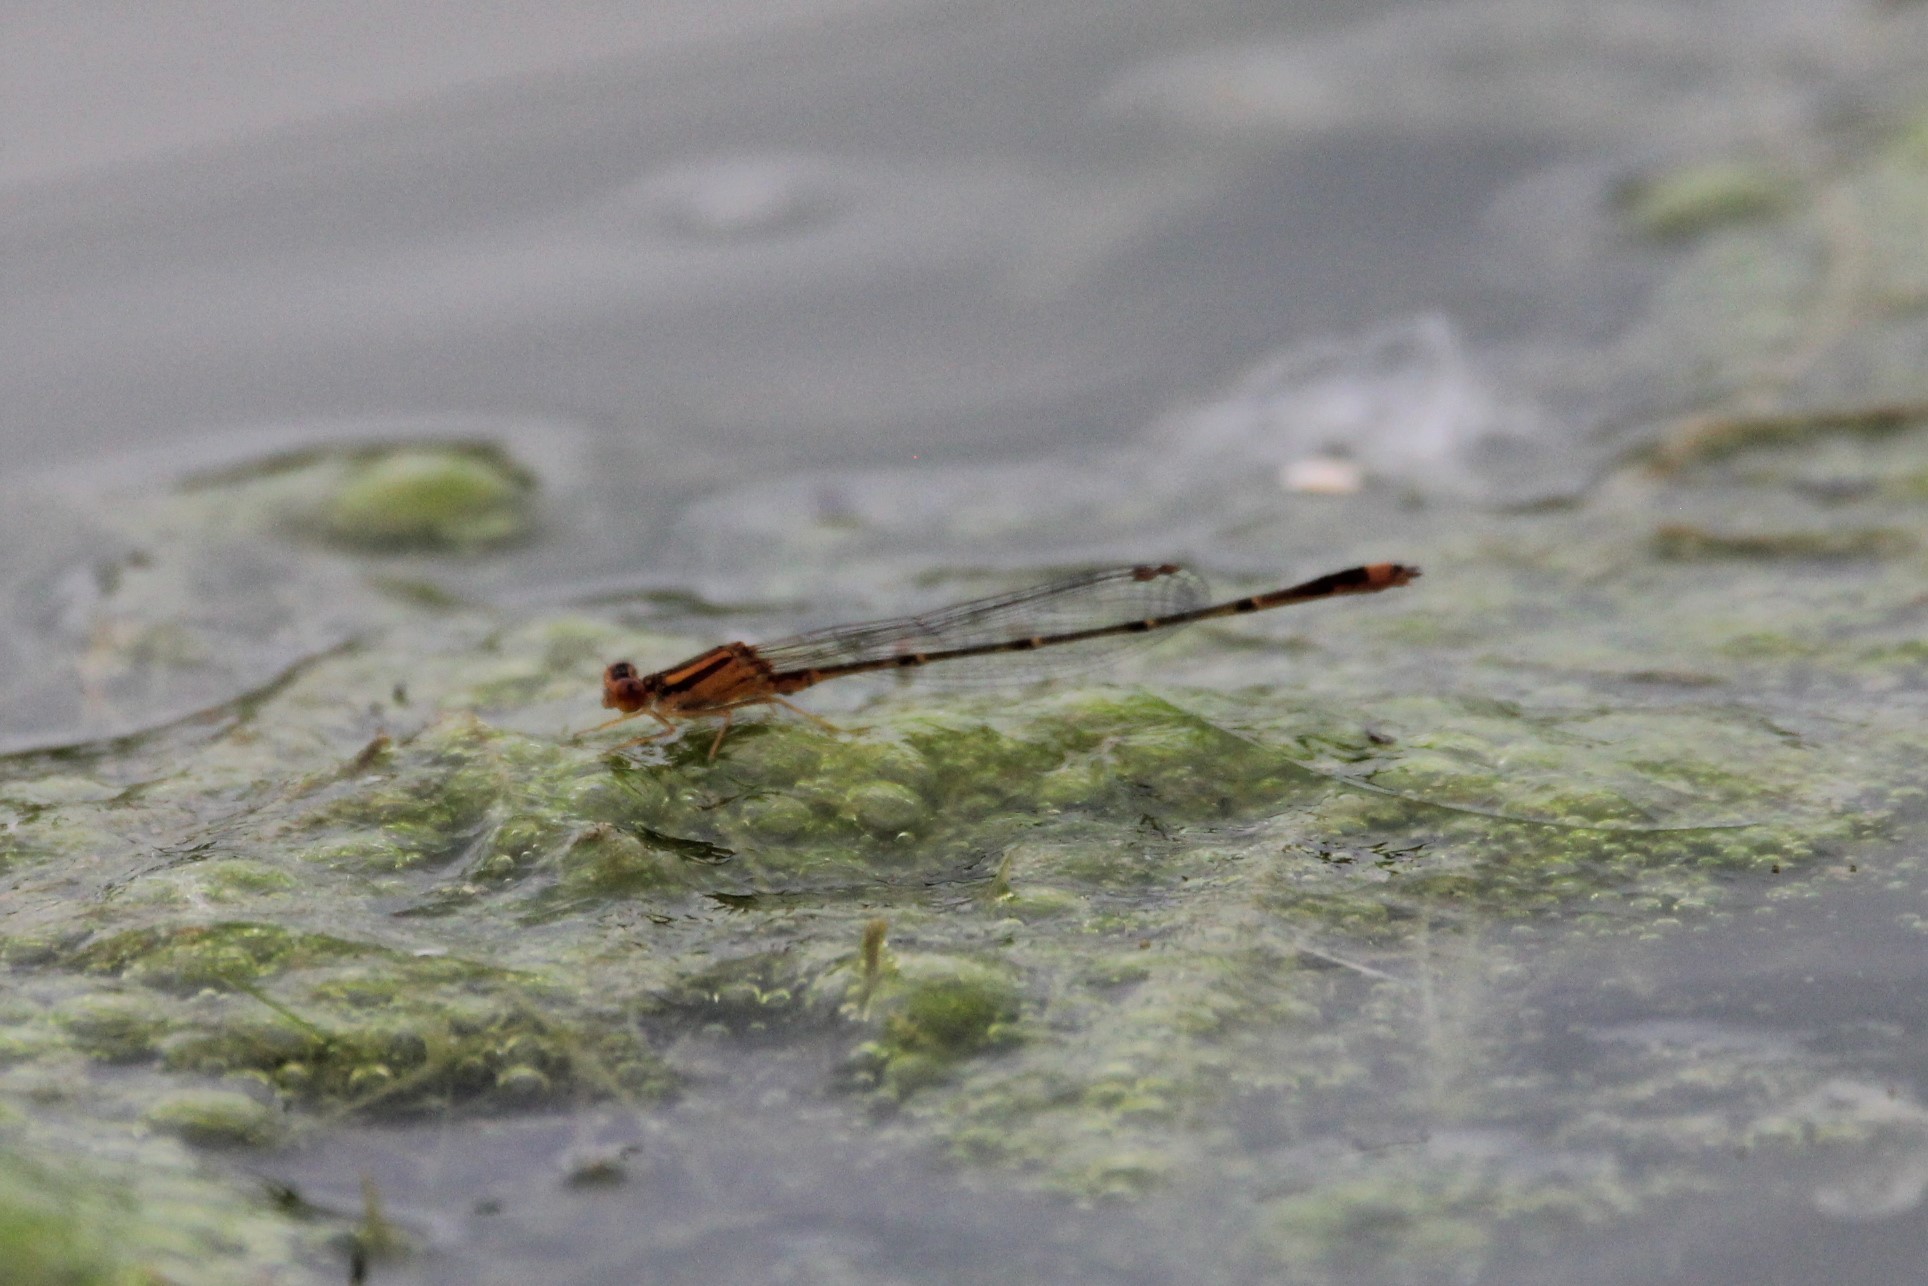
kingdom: Animalia
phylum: Arthropoda
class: Insecta
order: Odonata
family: Coenagrionidae
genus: Enallagma
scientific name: Enallagma signatum
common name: Orange bluet
